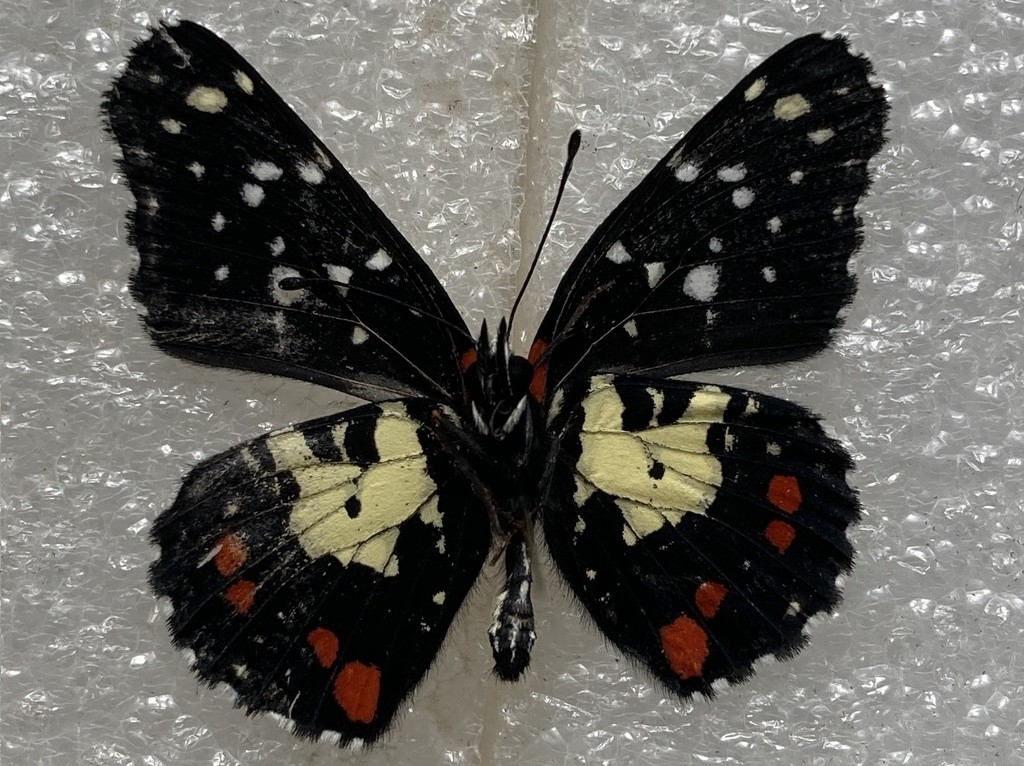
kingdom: Animalia
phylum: Arthropoda
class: Insecta
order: Lepidoptera
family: Nymphalidae
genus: Chlosyne
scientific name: Chlosyne erodyle
